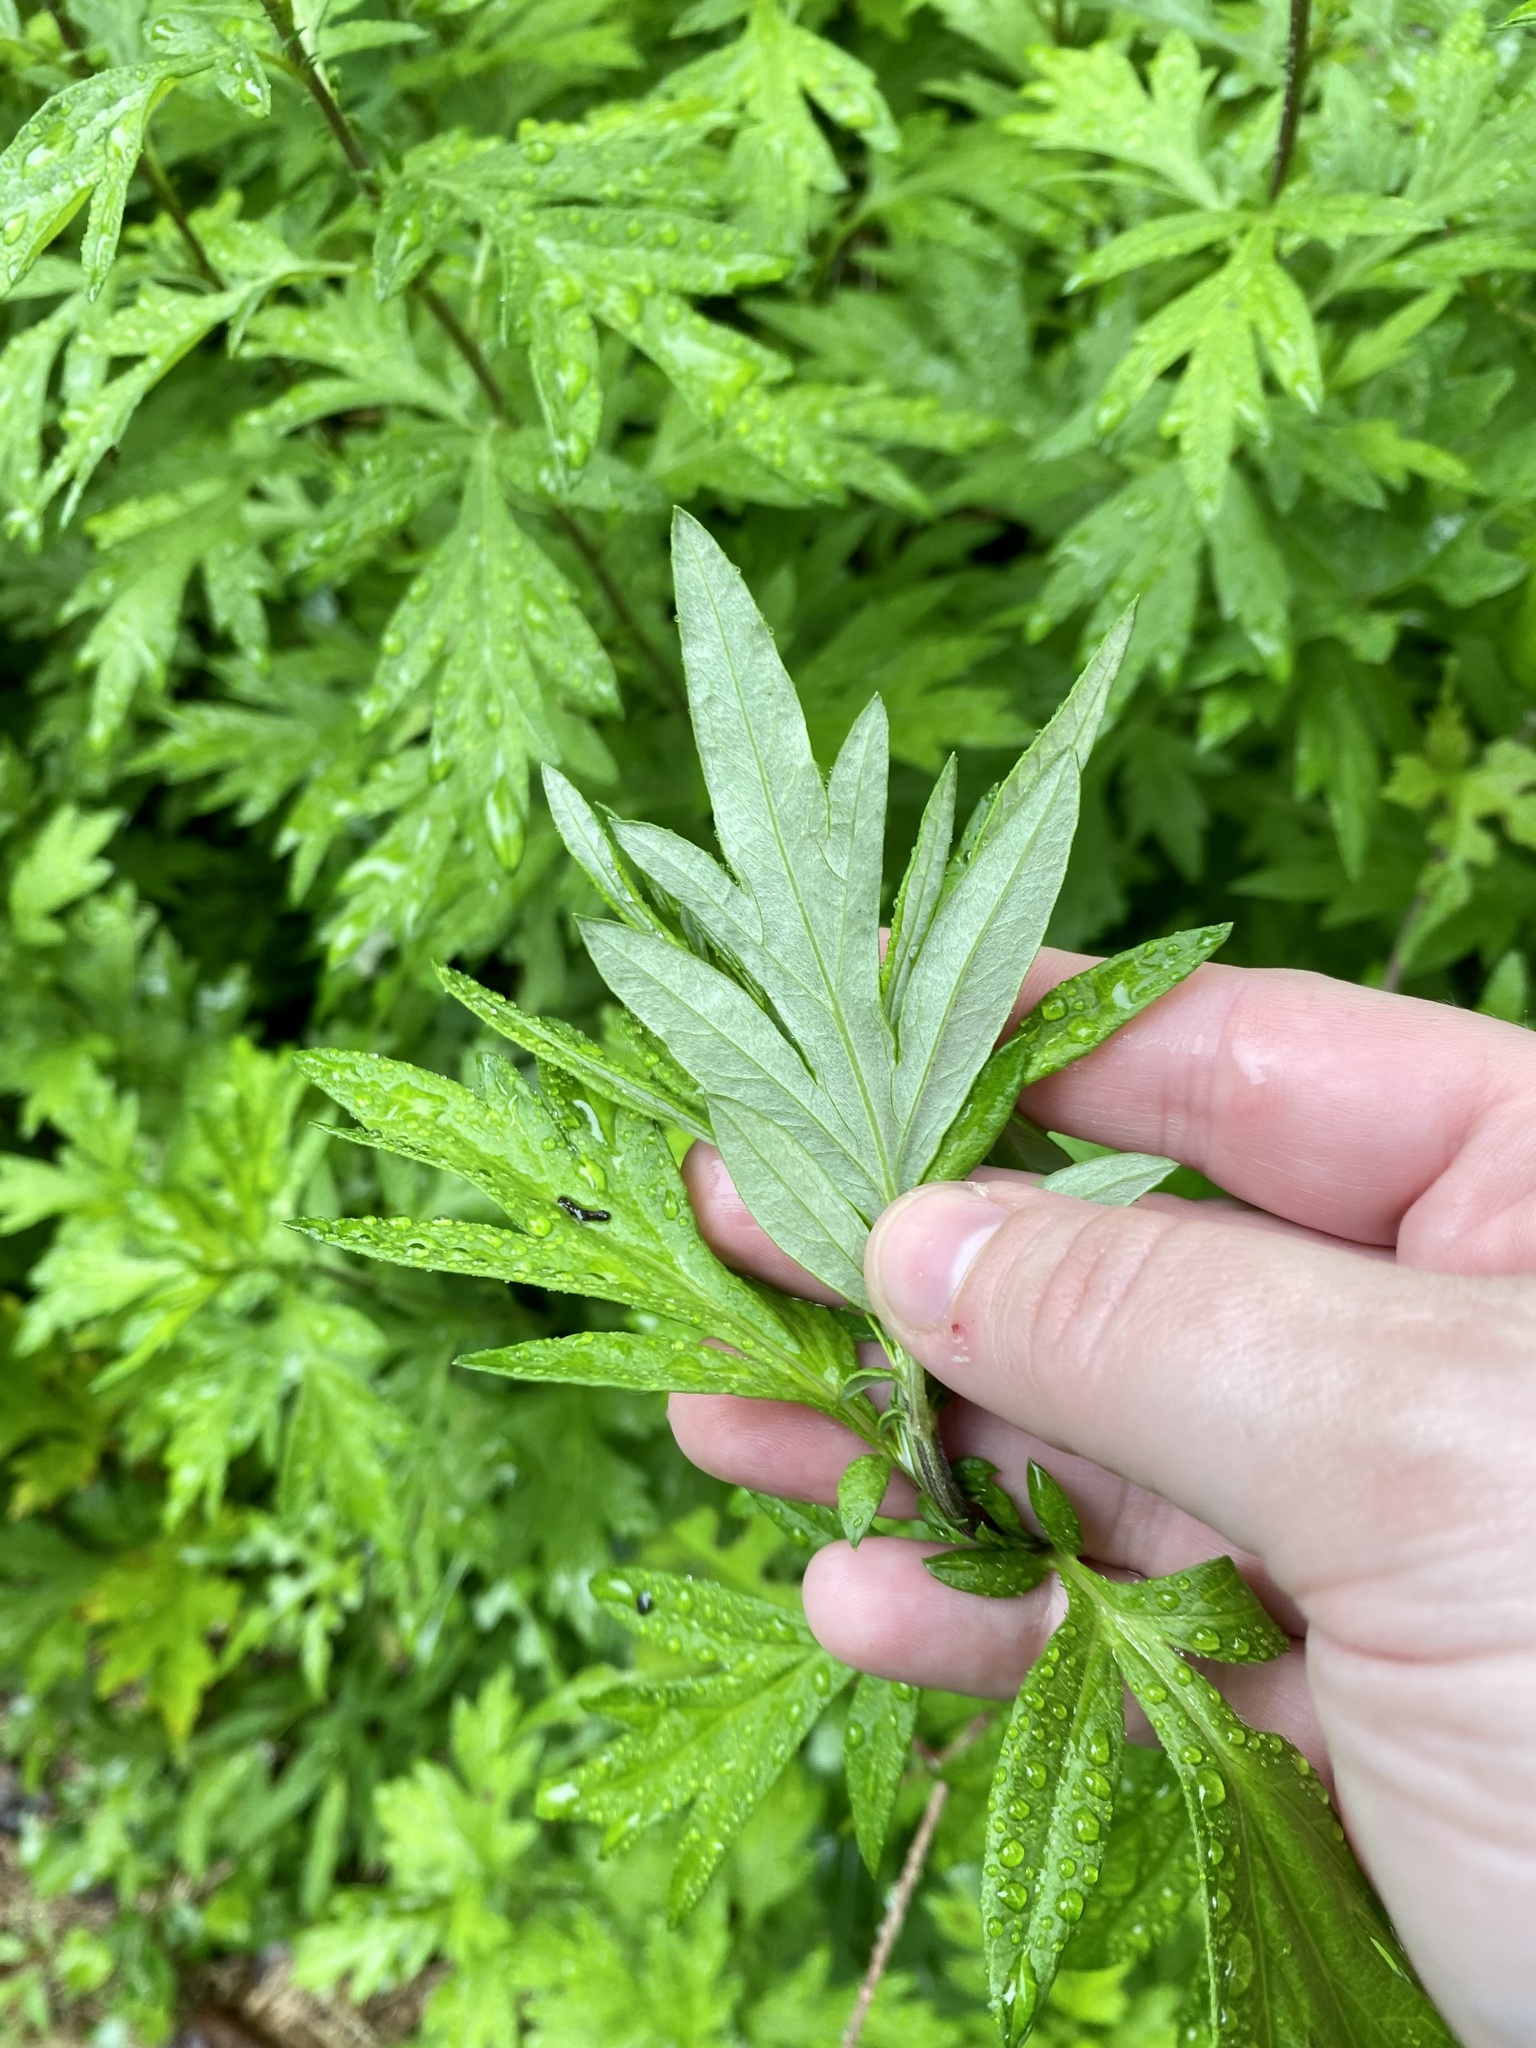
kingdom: Plantae
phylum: Tracheophyta
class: Magnoliopsida
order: Asterales
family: Asteraceae
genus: Artemisia
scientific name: Artemisia vulgaris
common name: Mugwort
